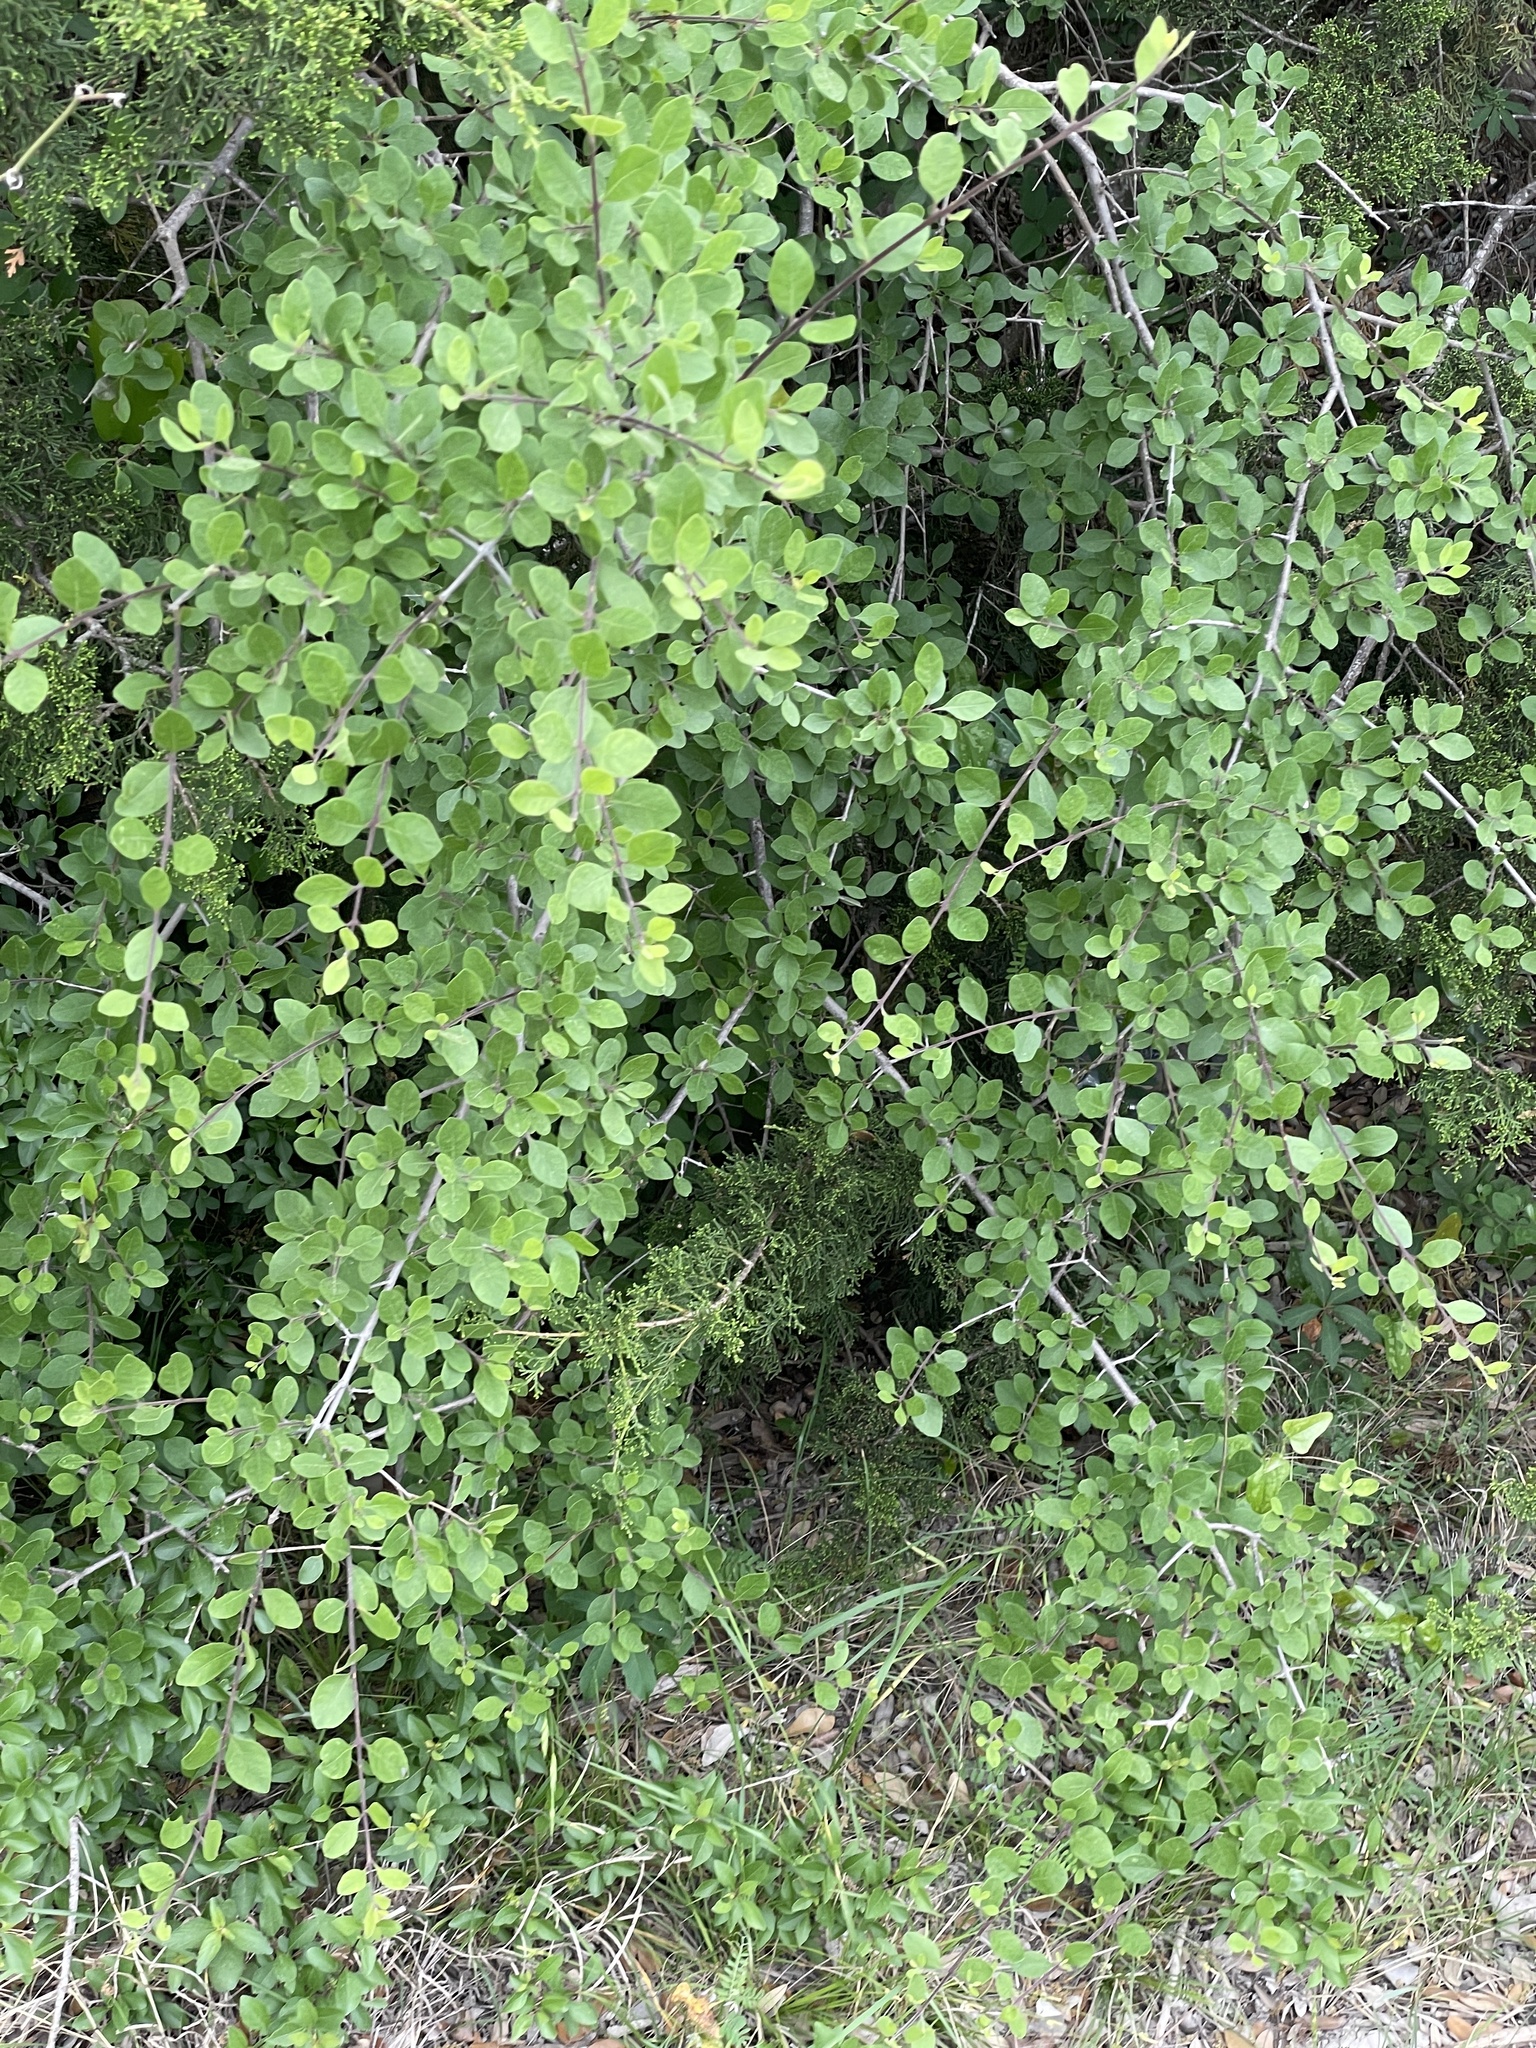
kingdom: Plantae
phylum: Tracheophyta
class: Magnoliopsida
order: Lamiales
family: Oleaceae
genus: Forestiera
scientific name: Forestiera pubescens
